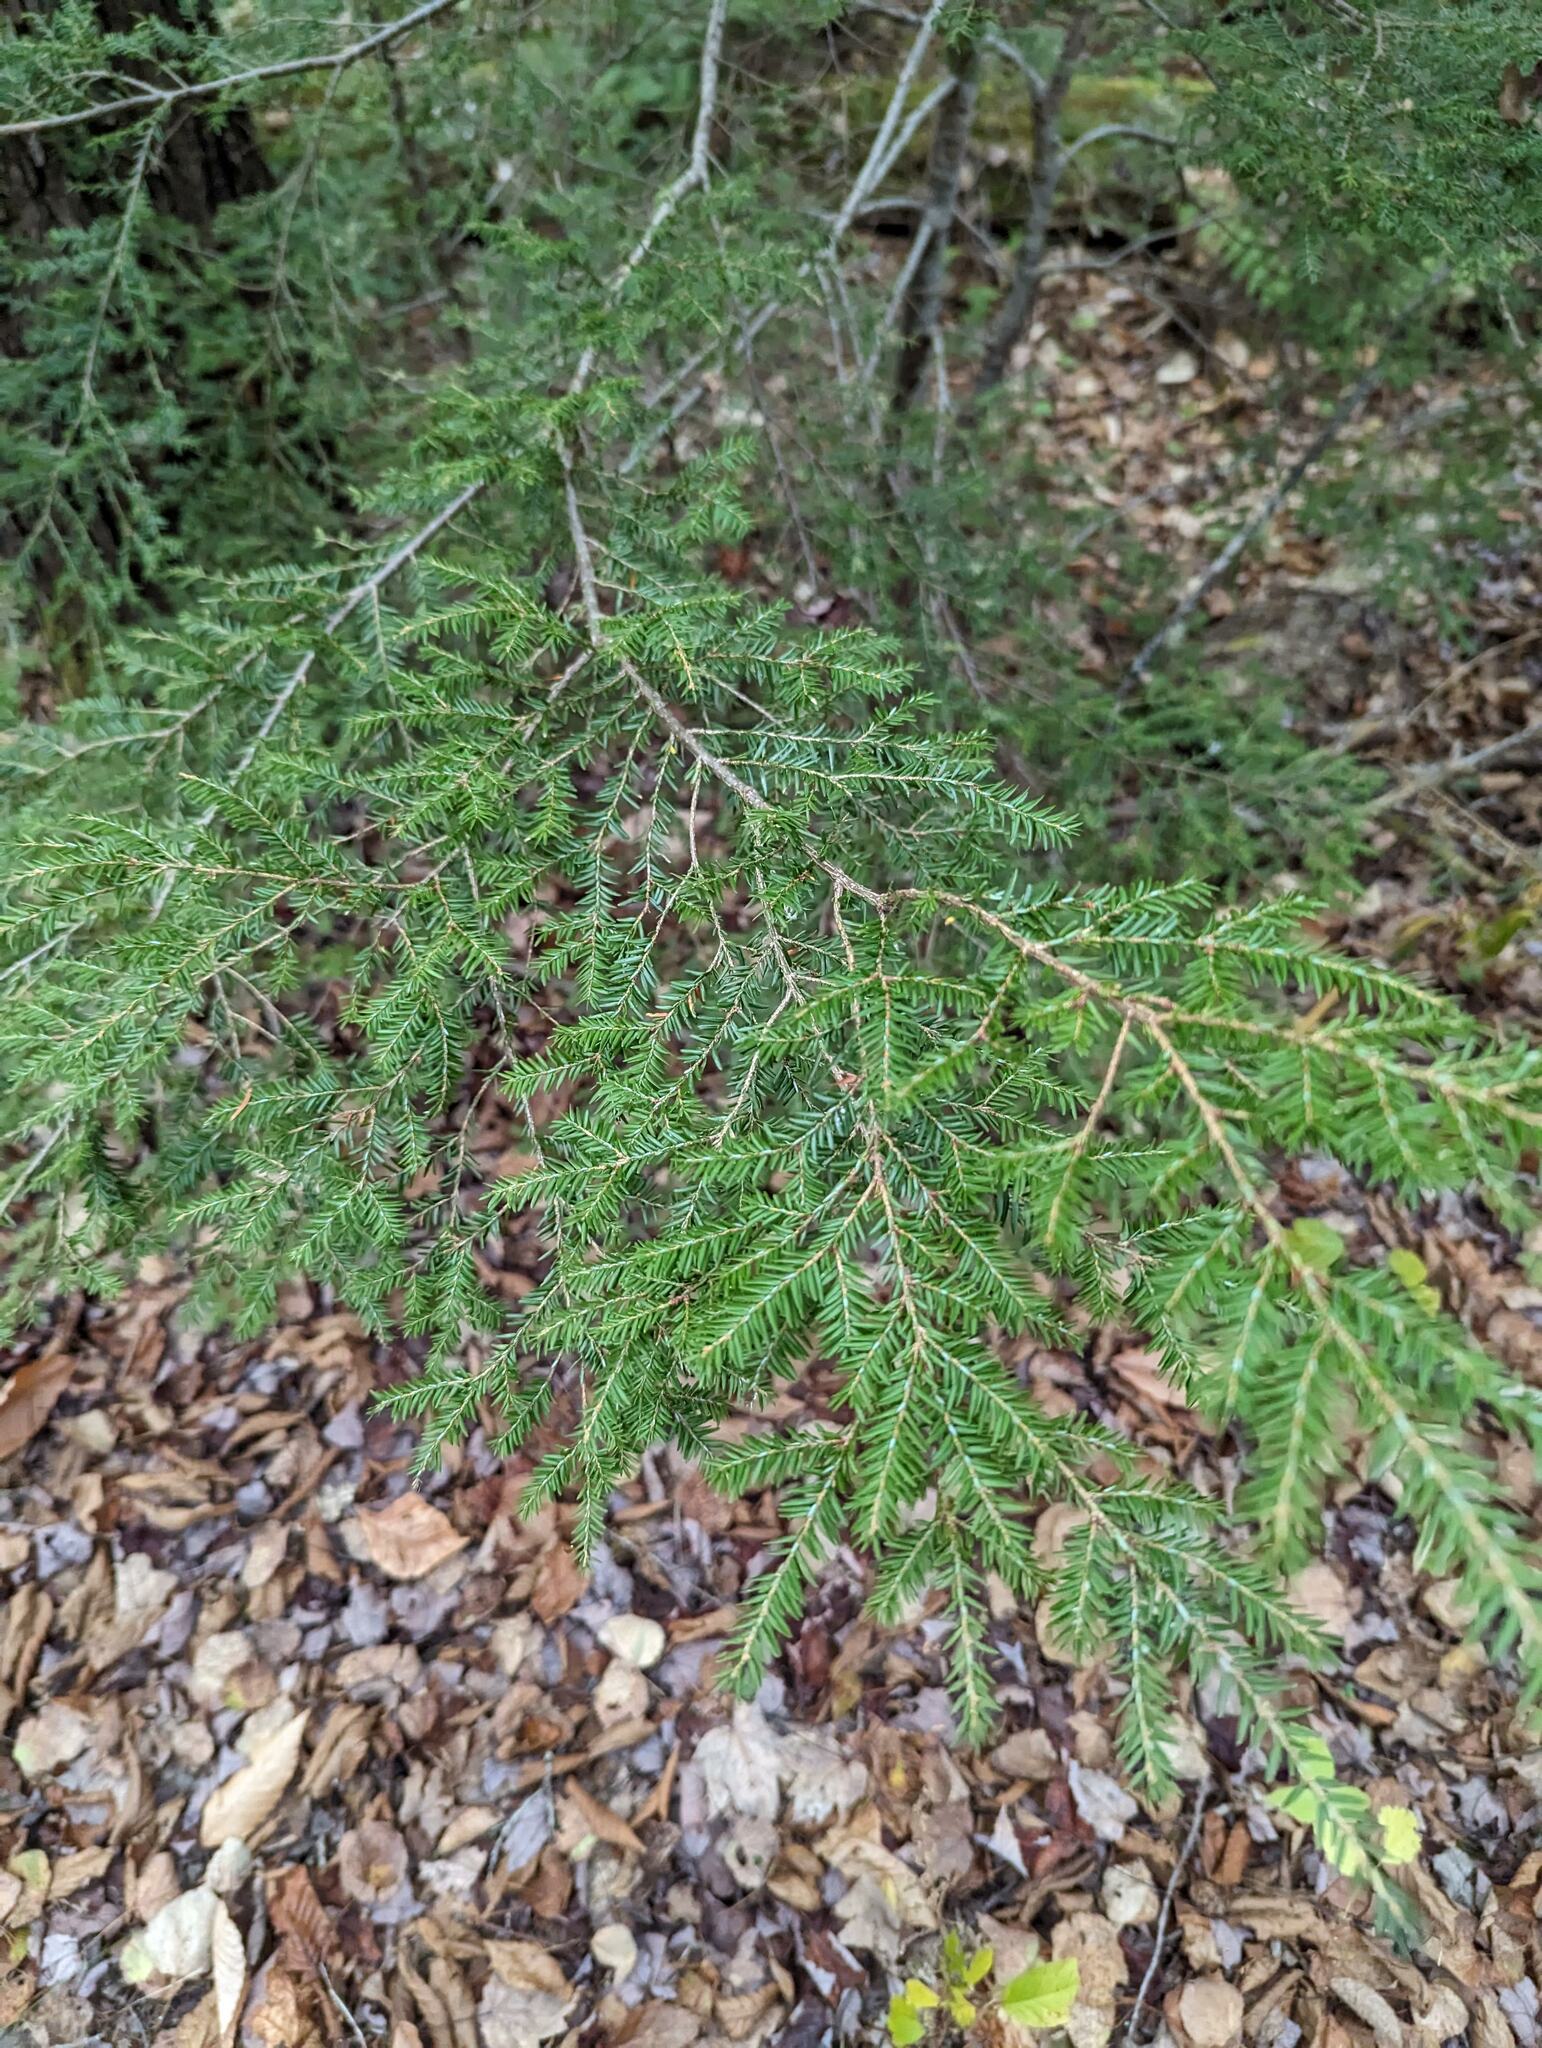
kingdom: Plantae
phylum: Tracheophyta
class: Pinopsida
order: Pinales
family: Pinaceae
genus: Tsuga
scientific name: Tsuga canadensis
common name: Eastern hemlock
